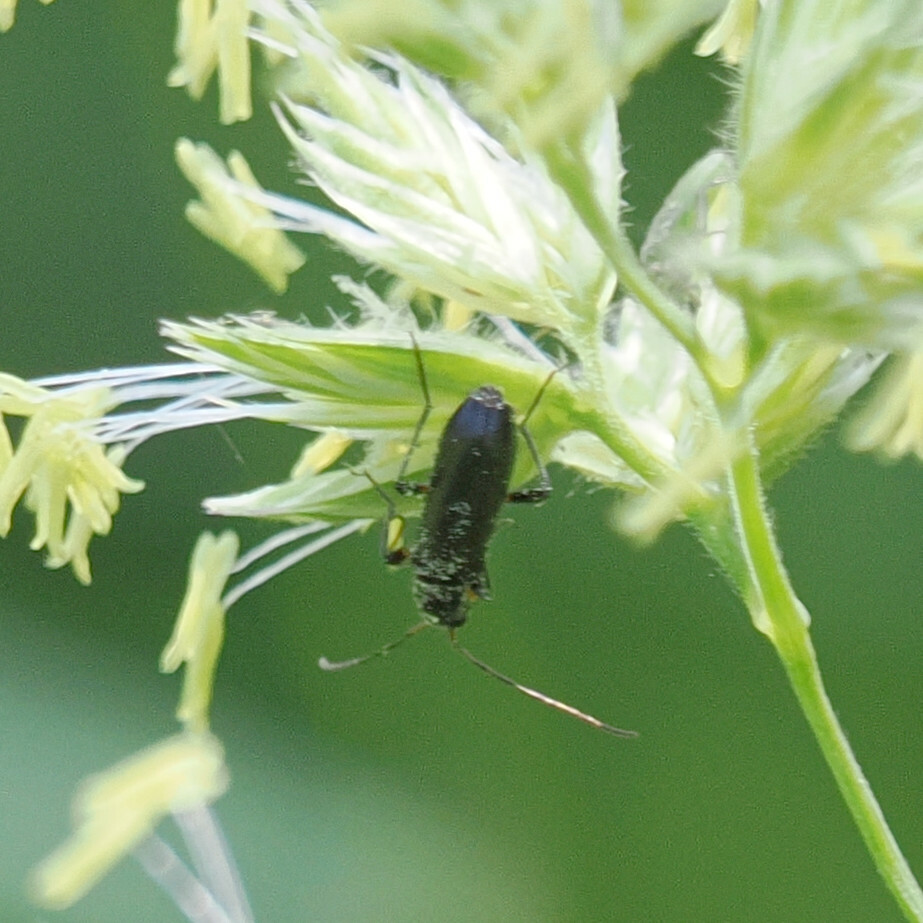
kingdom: Animalia
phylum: Arthropoda
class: Insecta
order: Coleoptera
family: Cerambycidae
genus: Grammoptera
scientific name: Grammoptera ruficornis
